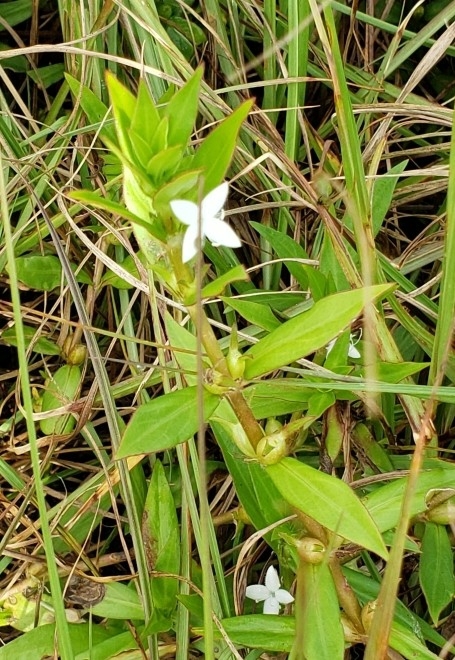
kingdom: Plantae
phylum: Tracheophyta
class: Magnoliopsida
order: Gentianales
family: Rubiaceae
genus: Diodia
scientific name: Diodia virginiana
